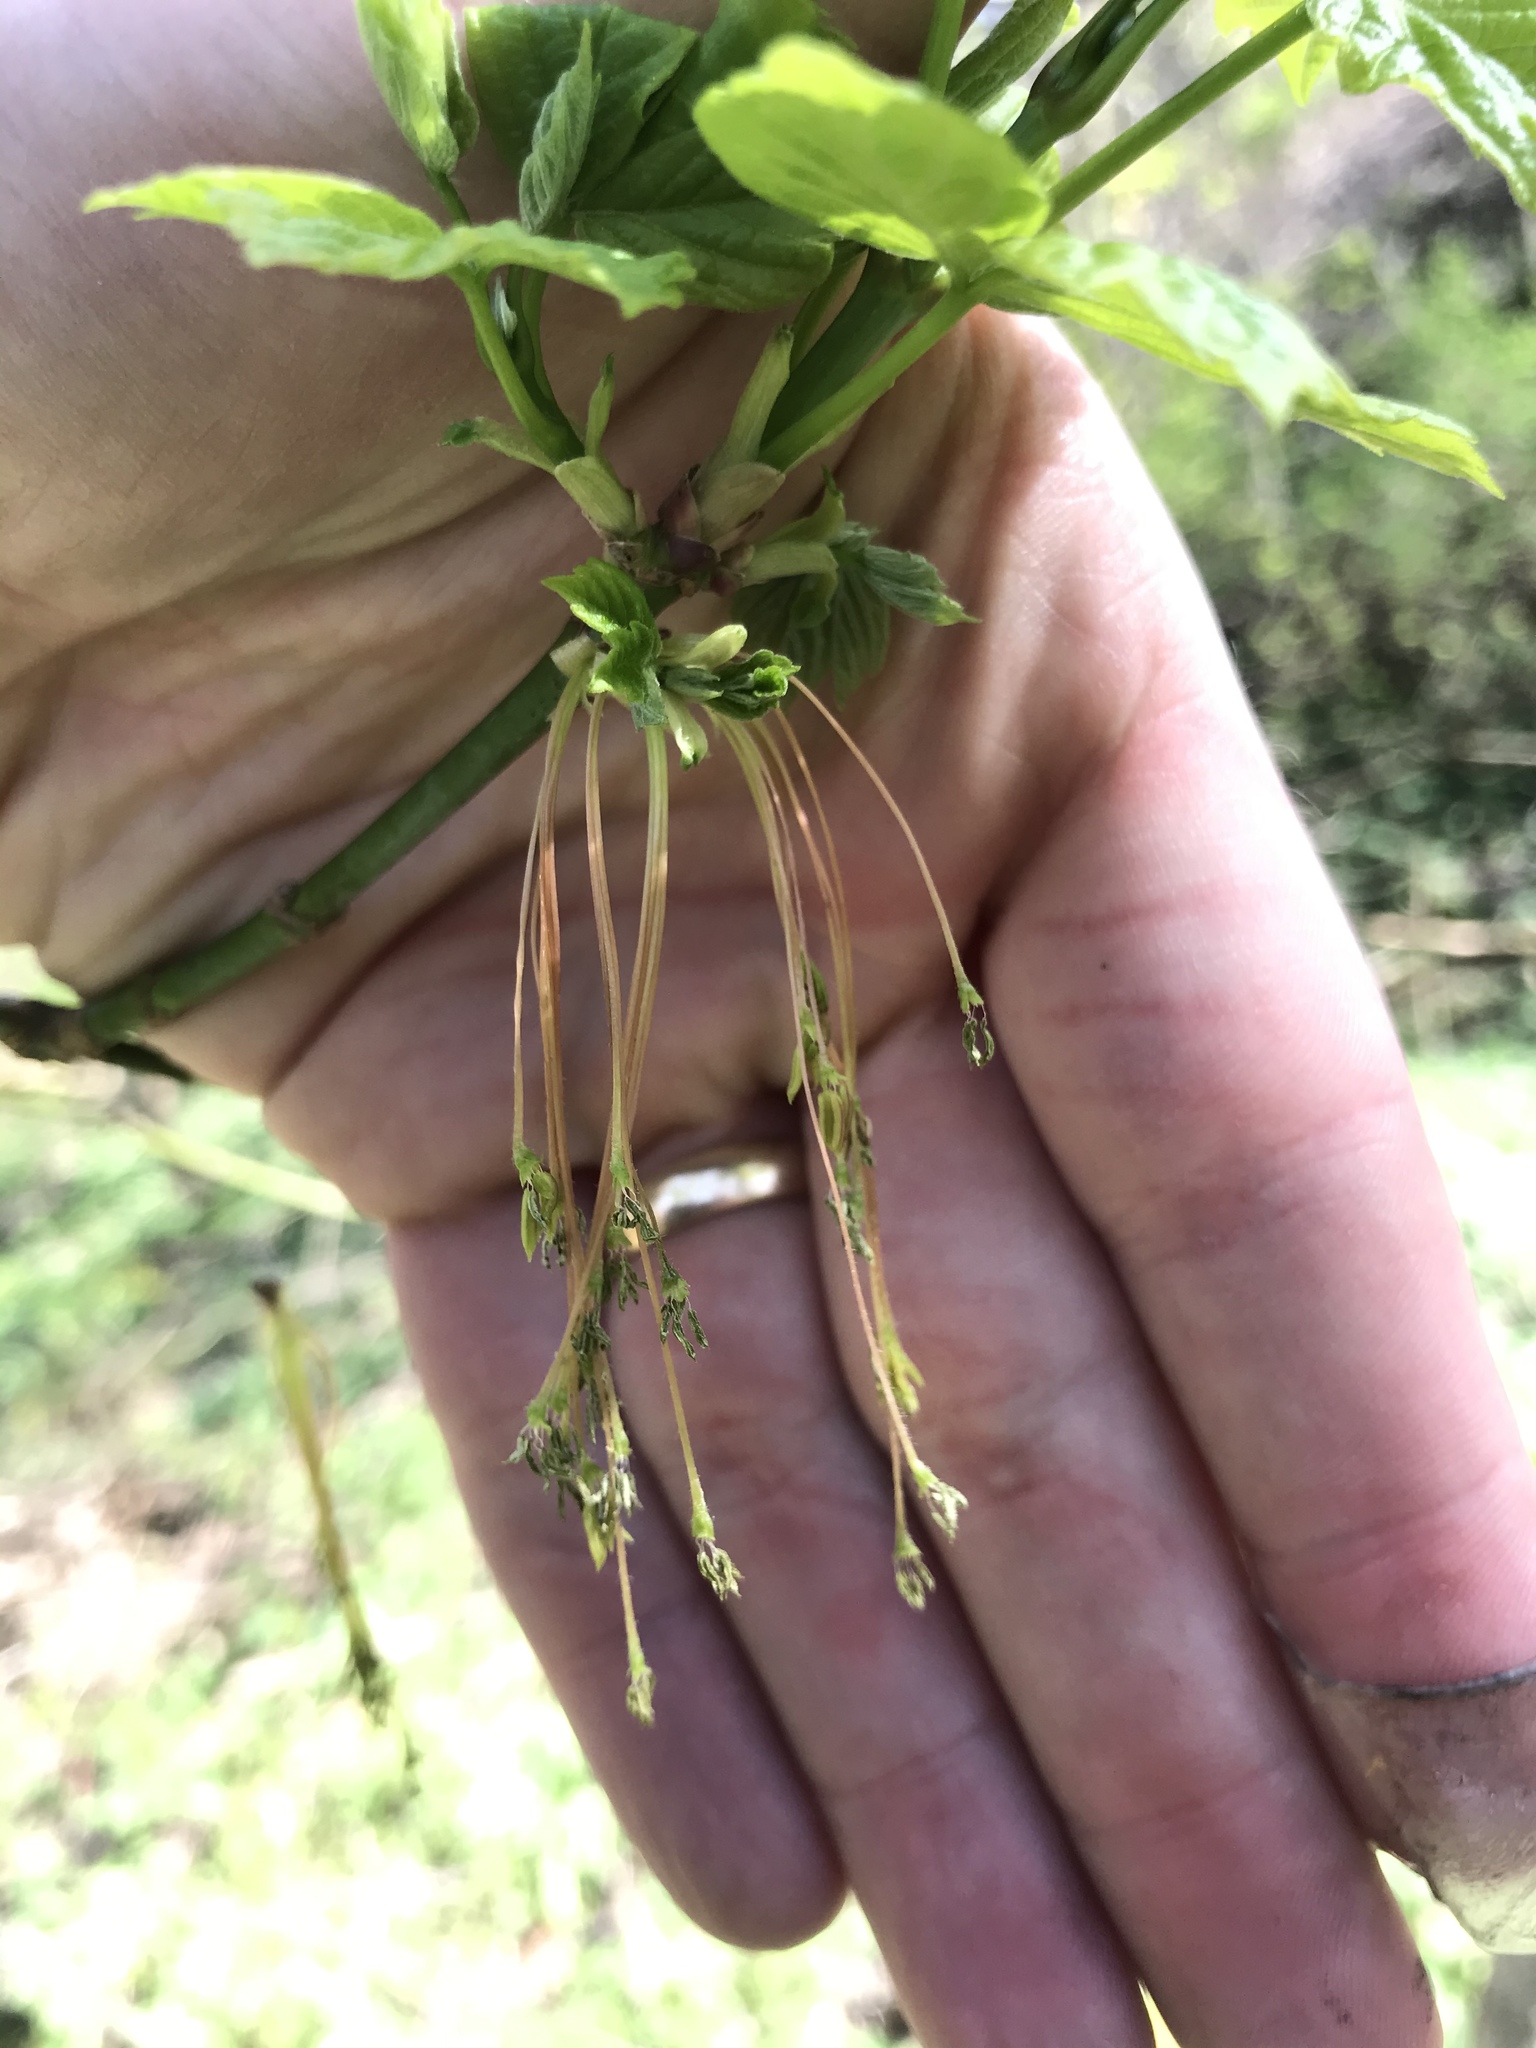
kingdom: Plantae
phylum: Tracheophyta
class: Magnoliopsida
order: Sapindales
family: Sapindaceae
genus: Acer
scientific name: Acer negundo
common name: Ashleaf maple
